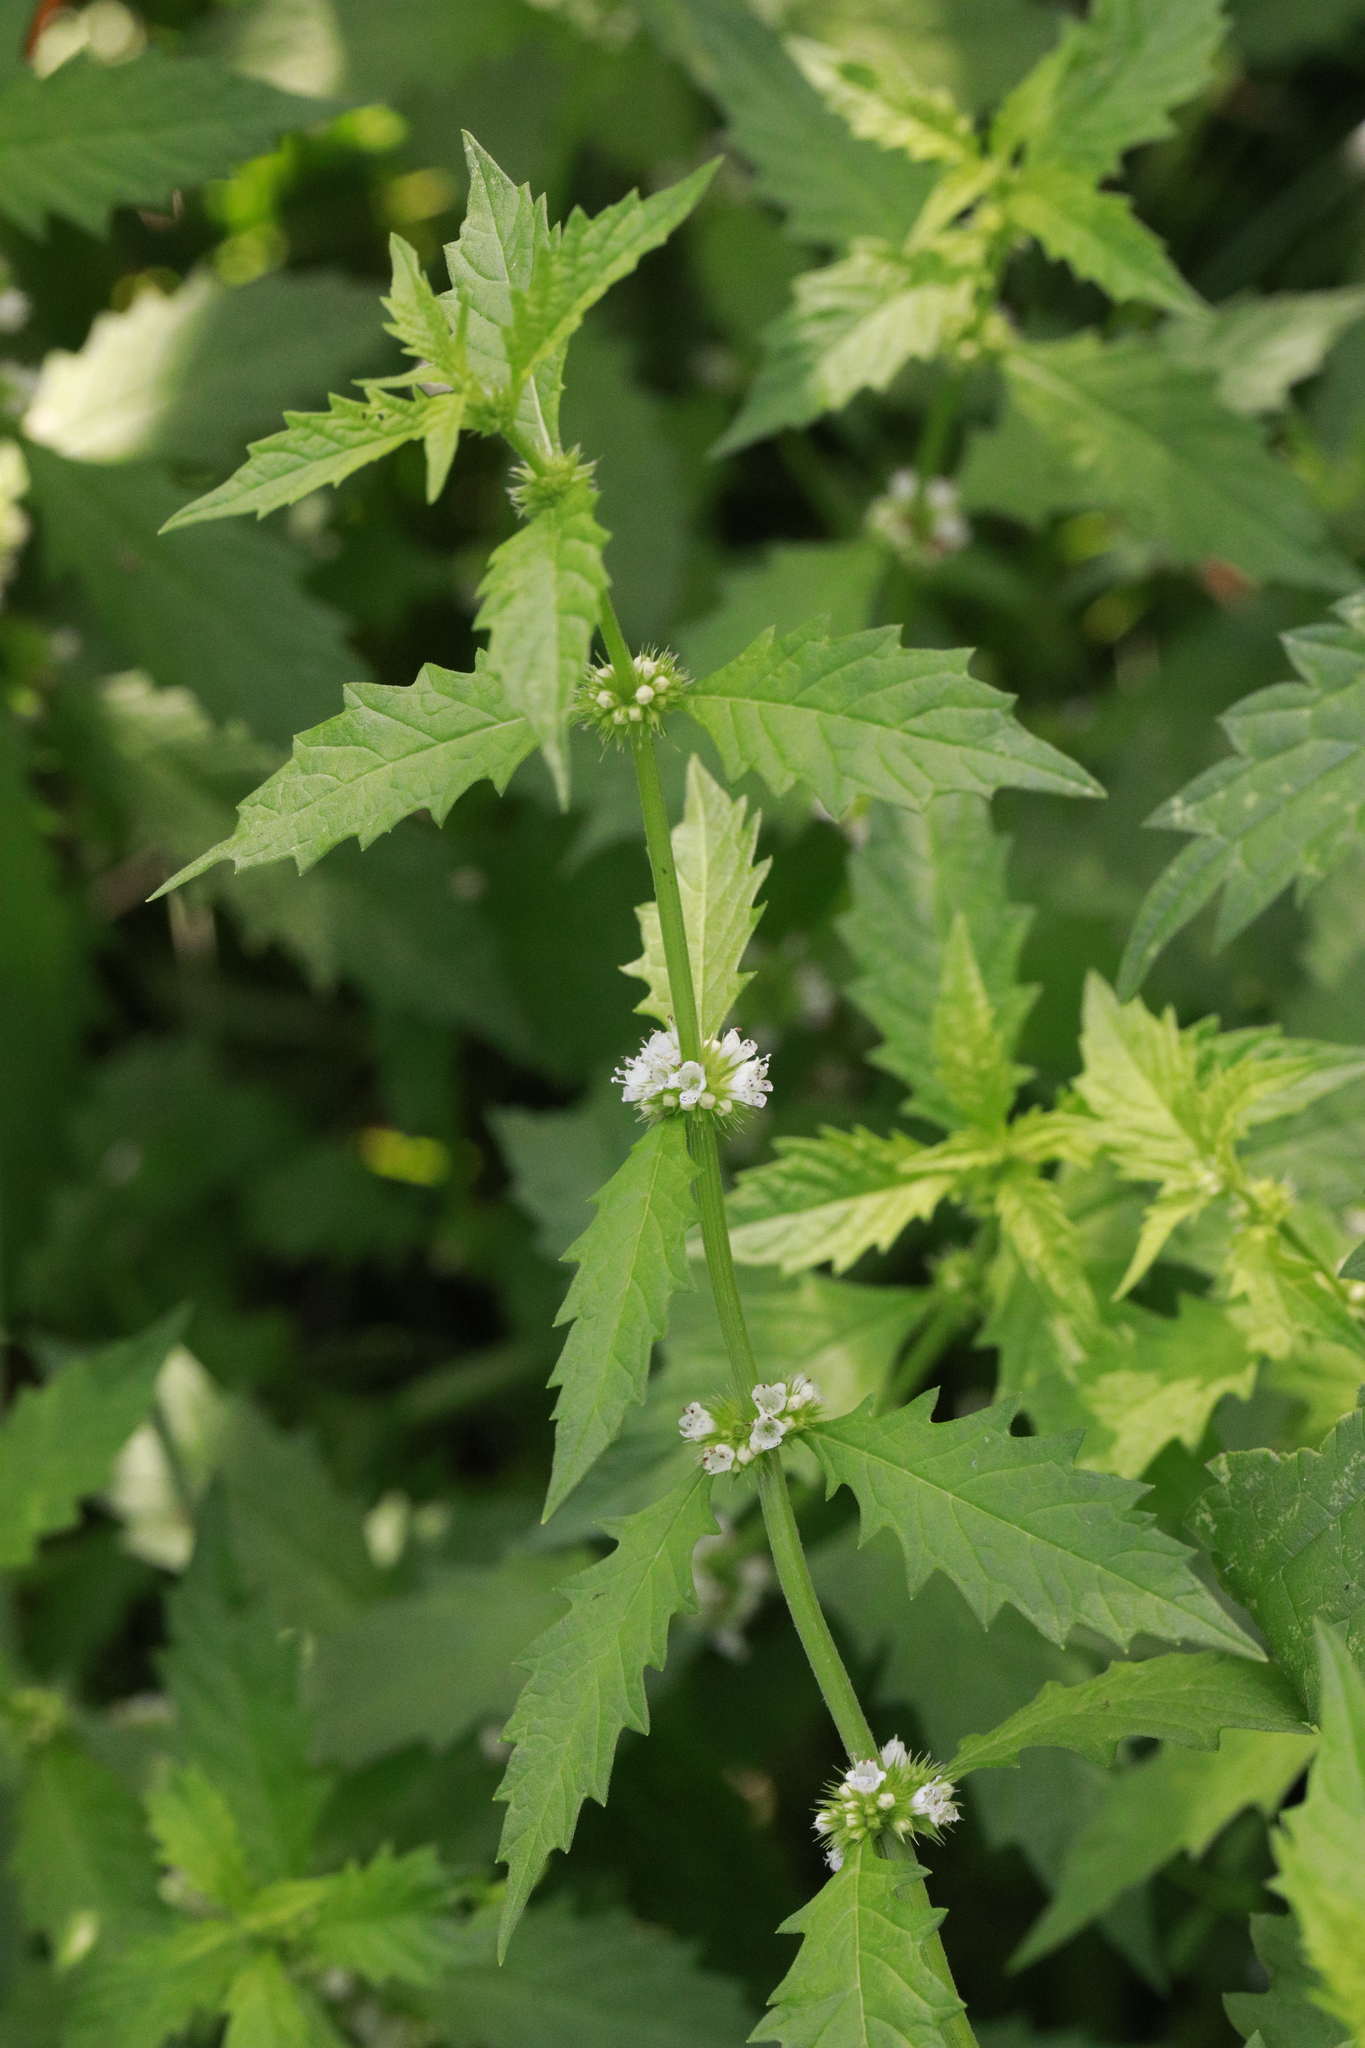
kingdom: Plantae
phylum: Tracheophyta
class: Magnoliopsida
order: Lamiales
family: Lamiaceae
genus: Lycopus
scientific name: Lycopus europaeus
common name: European bugleweed
